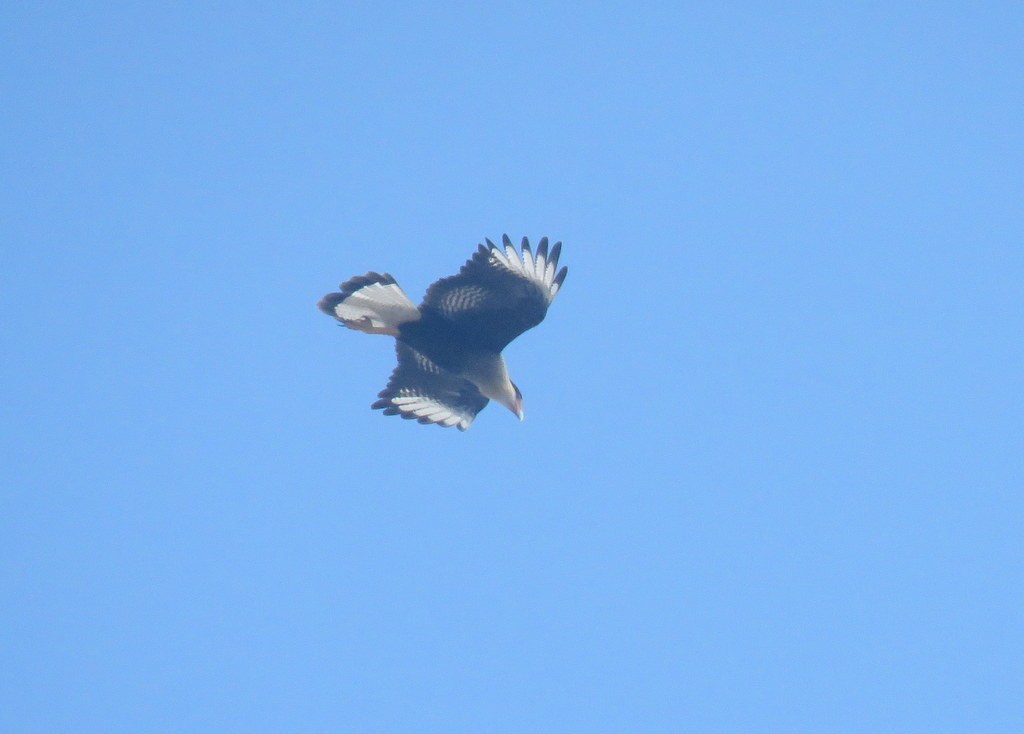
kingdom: Animalia
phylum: Chordata
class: Aves
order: Falconiformes
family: Falconidae
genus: Caracara
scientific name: Caracara plancus
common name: Southern caracara
